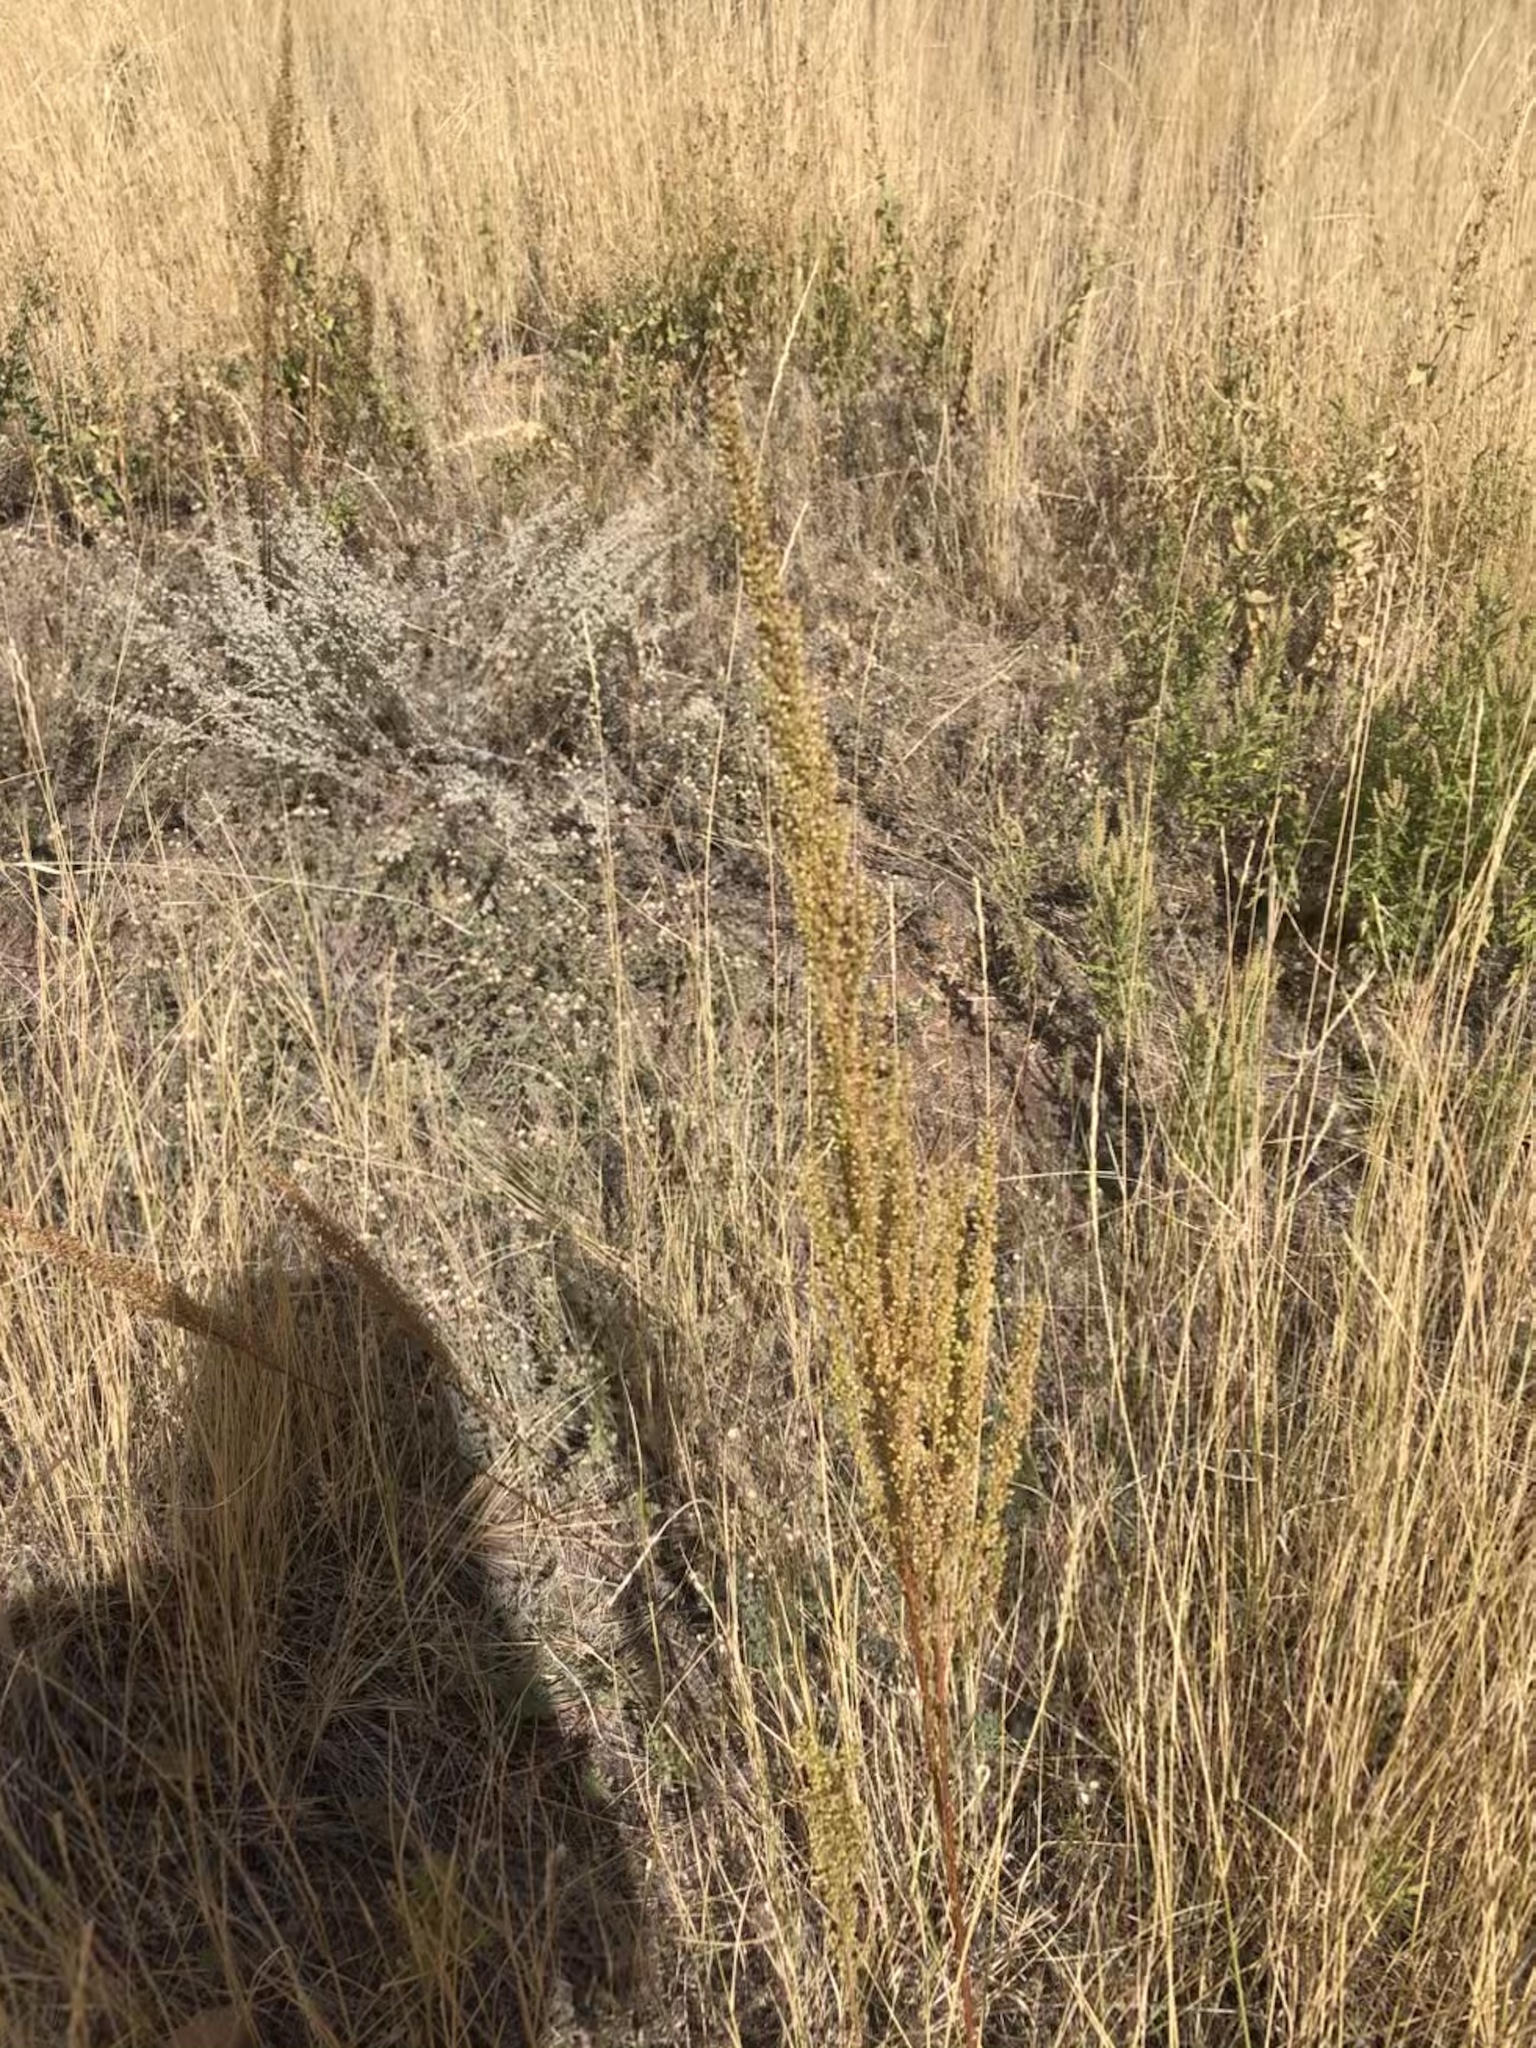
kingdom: Plantae
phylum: Tracheophyta
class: Magnoliopsida
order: Asterales
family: Asteraceae
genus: Artemisia
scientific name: Artemisia campestris
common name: Field wormwood
